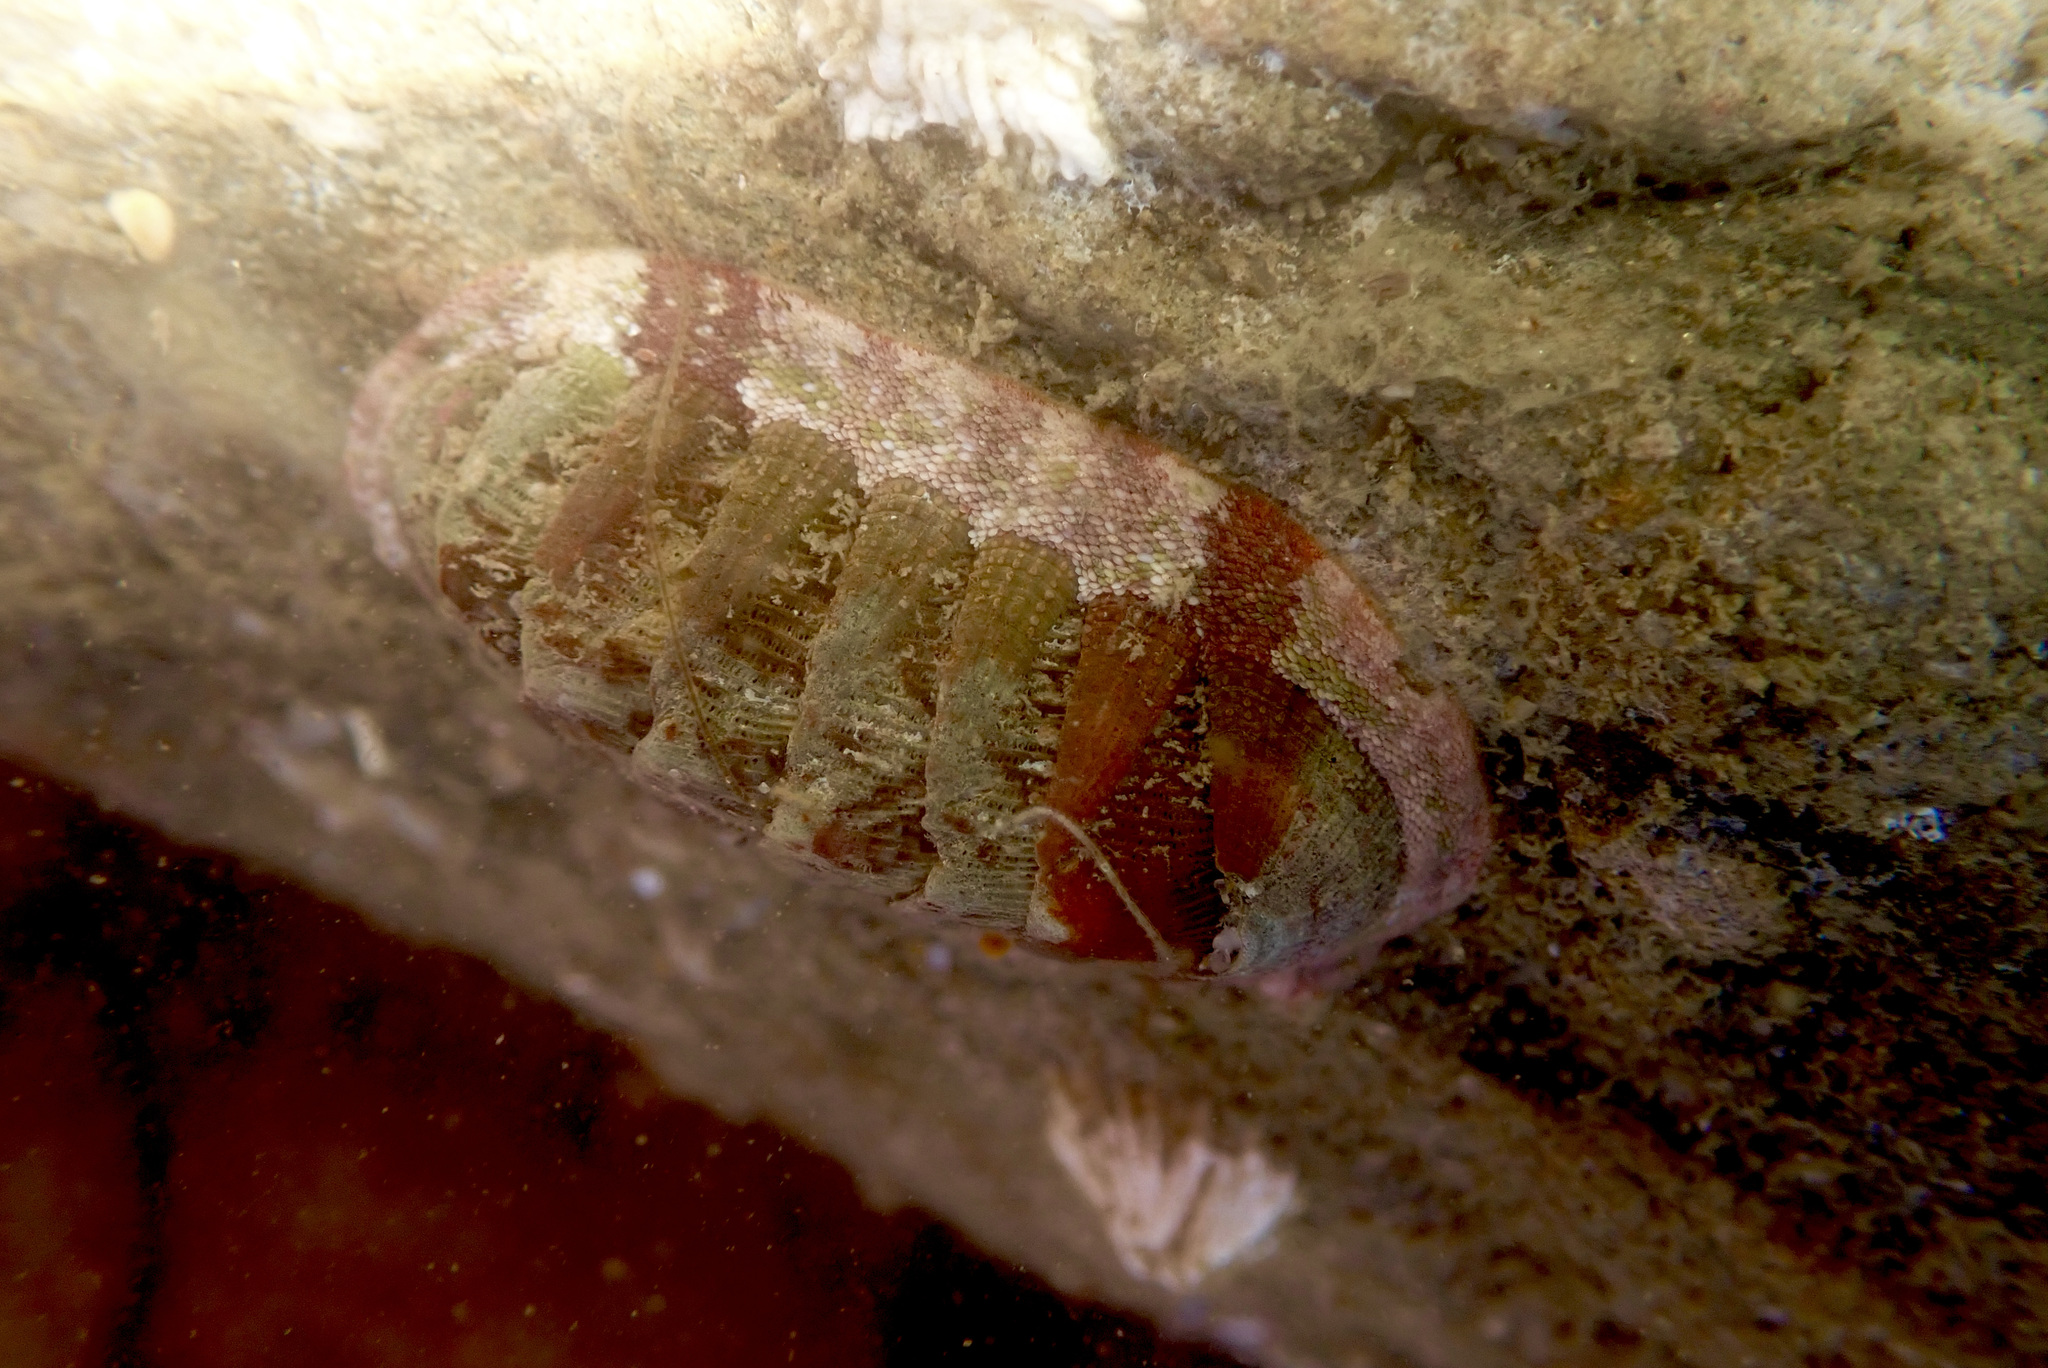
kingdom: Animalia
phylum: Mollusca
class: Polyplacophora
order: Chitonida
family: Ischnochitonidae
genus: Lepidozona
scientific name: Lepidozona mertensii
